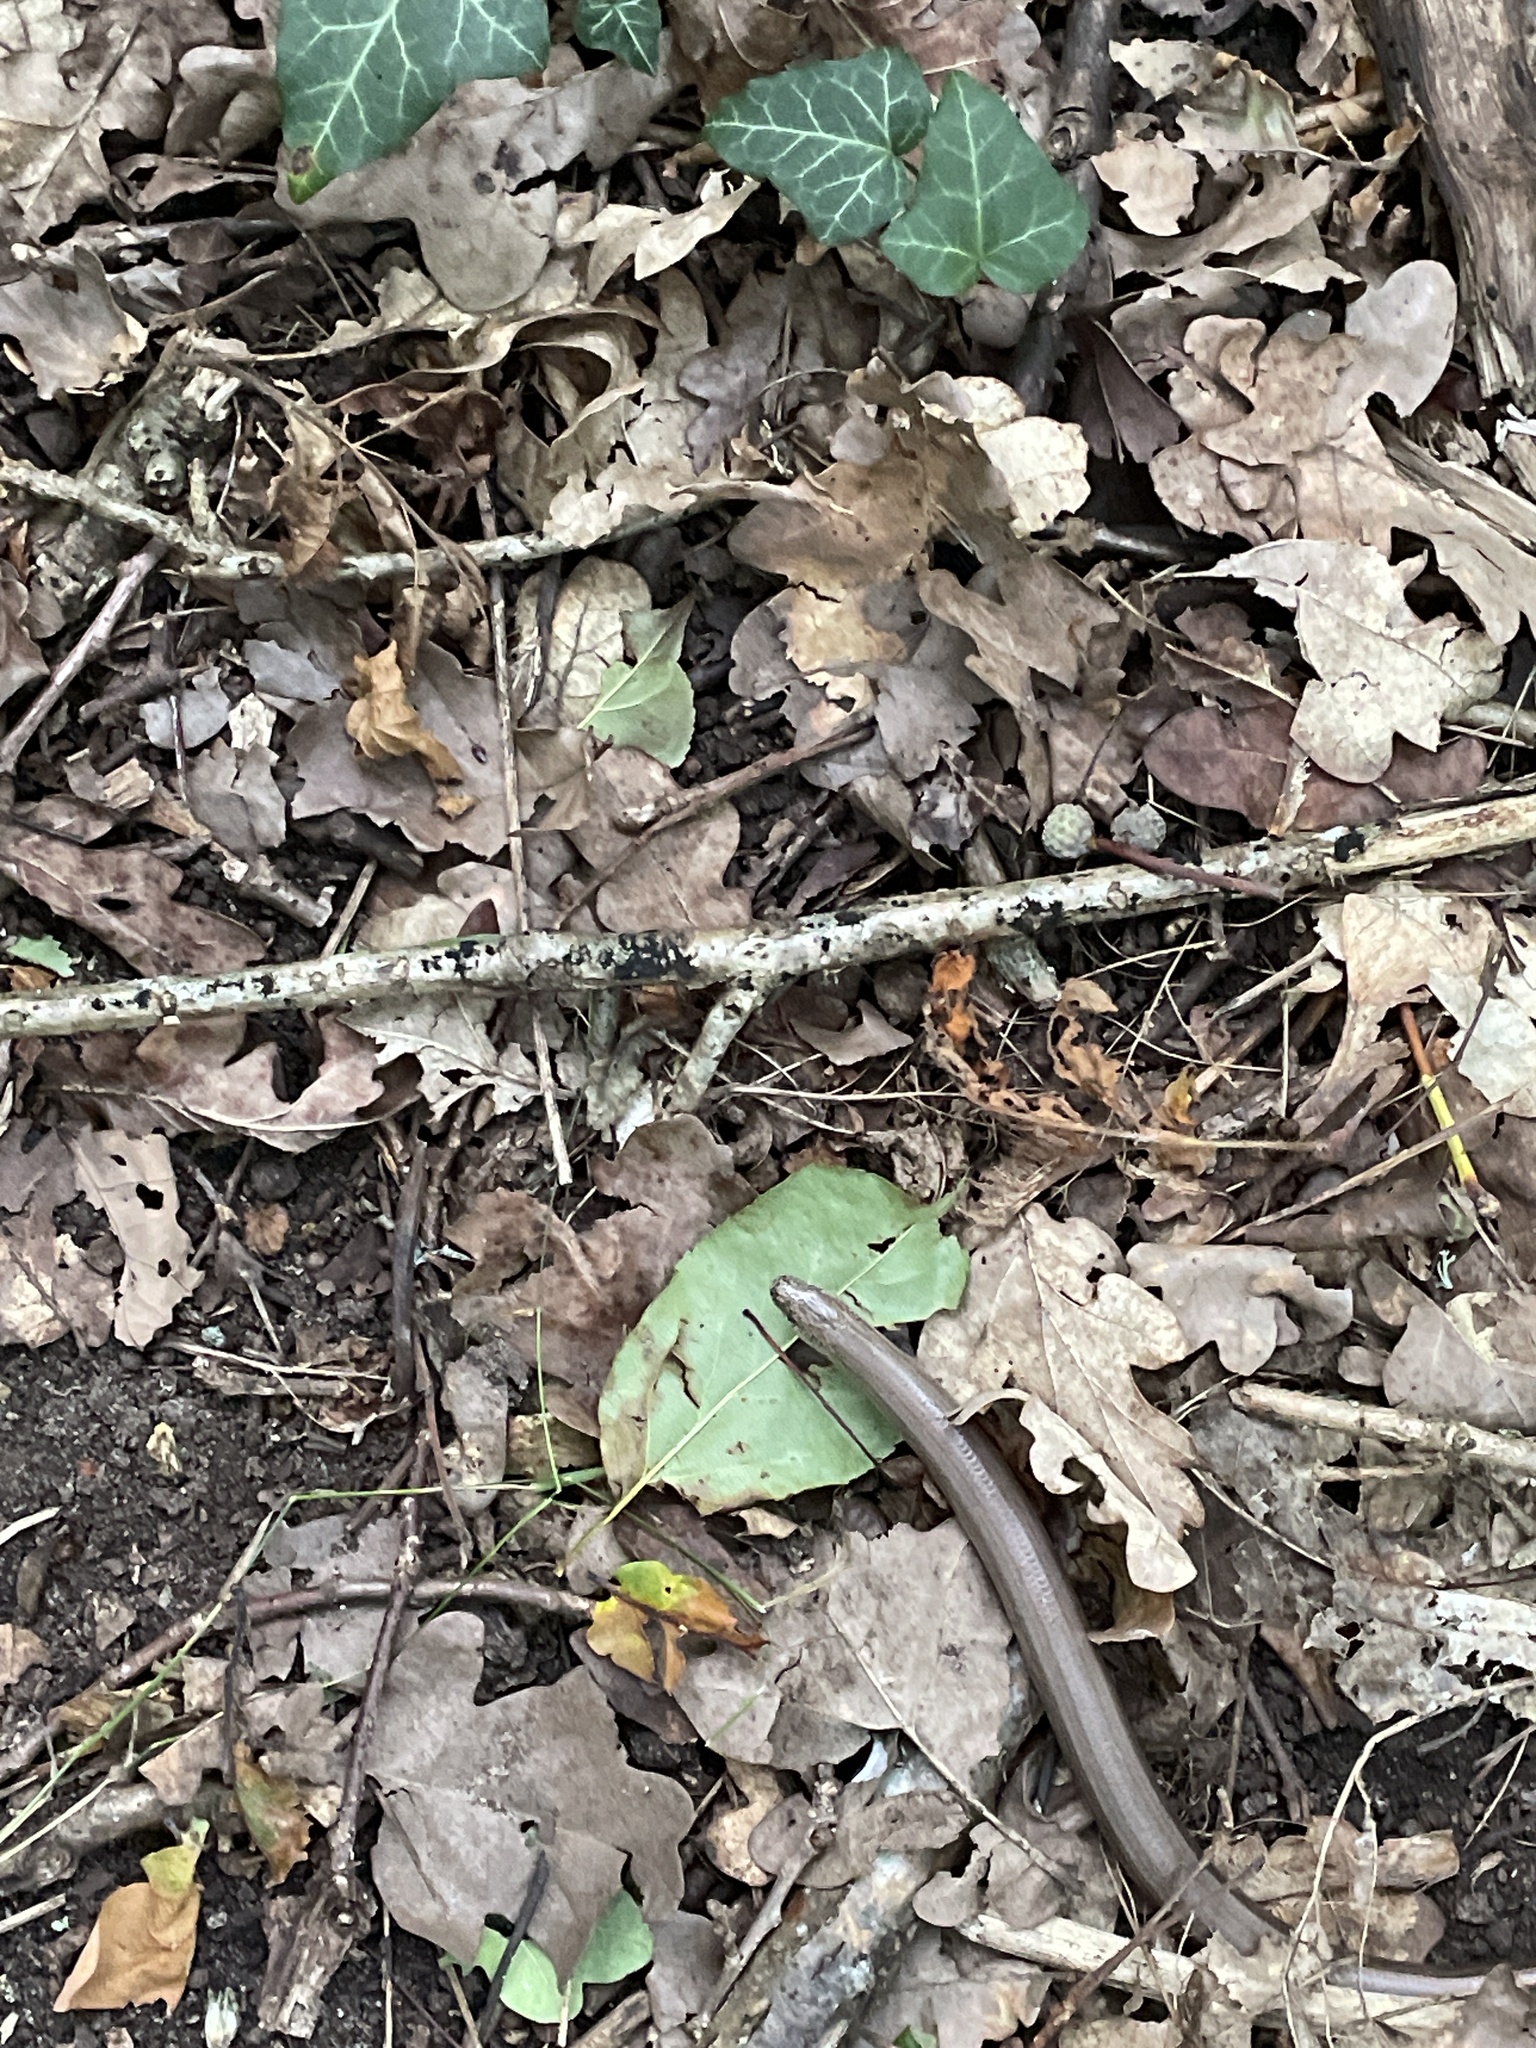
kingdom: Animalia
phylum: Chordata
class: Squamata
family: Anguidae
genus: Anguis
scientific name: Anguis fragilis
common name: Slow worm
